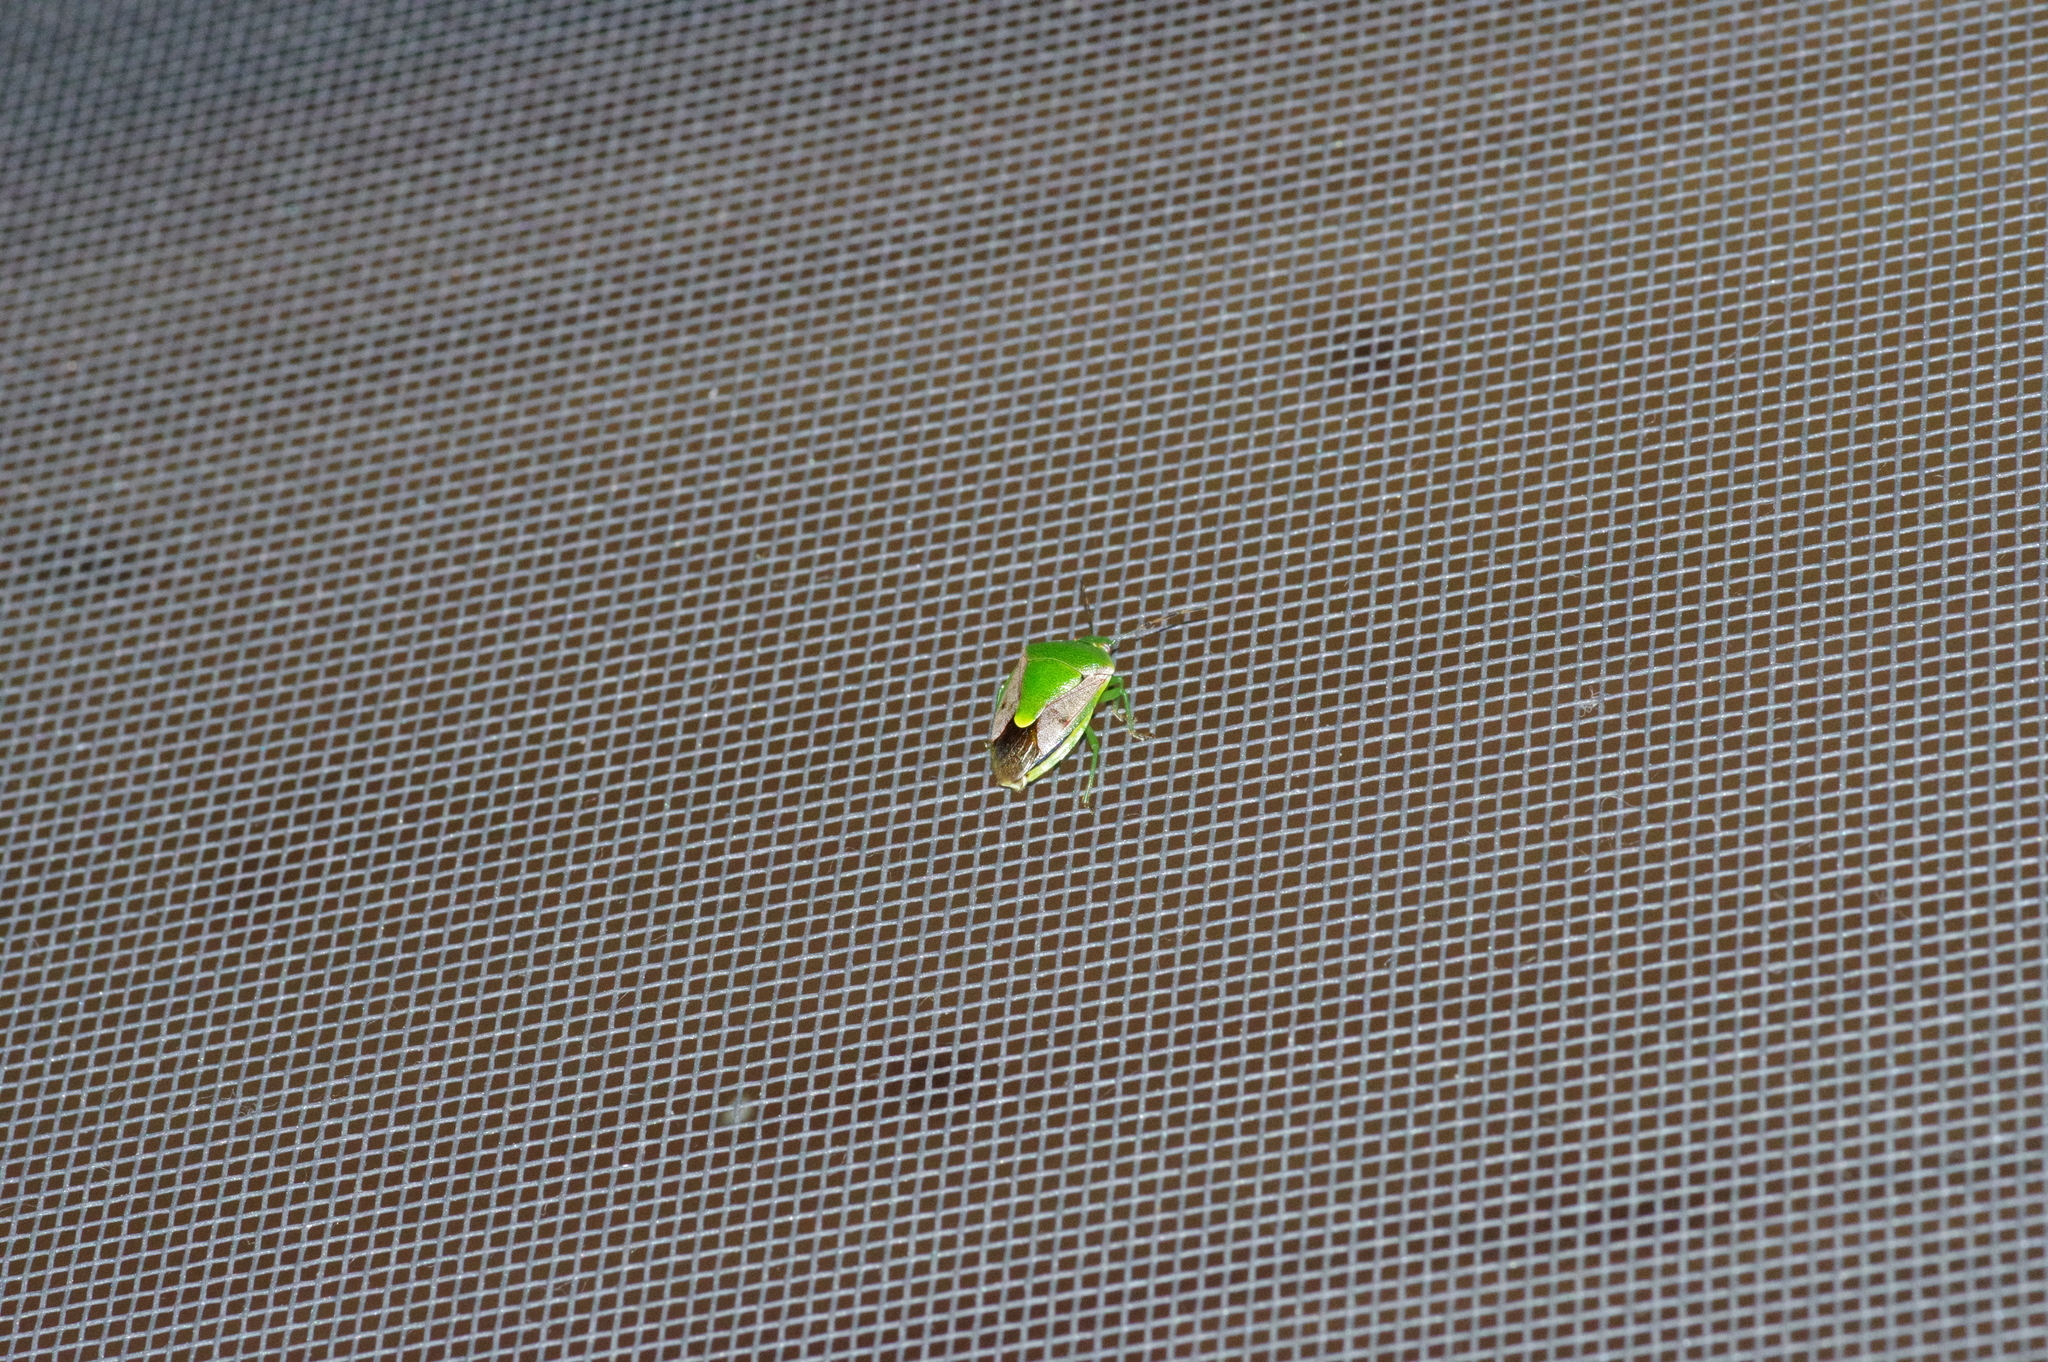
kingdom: Animalia
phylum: Arthropoda
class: Insecta
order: Hemiptera
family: Pentatomidae
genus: Plautia
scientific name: Plautia stali
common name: Stink bug
